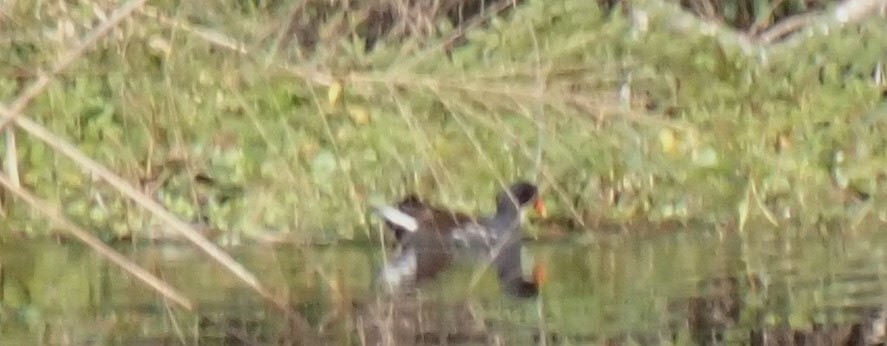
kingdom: Animalia
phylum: Chordata
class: Aves
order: Gruiformes
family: Rallidae
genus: Gallinula
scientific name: Gallinula chloropus
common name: Common moorhen
